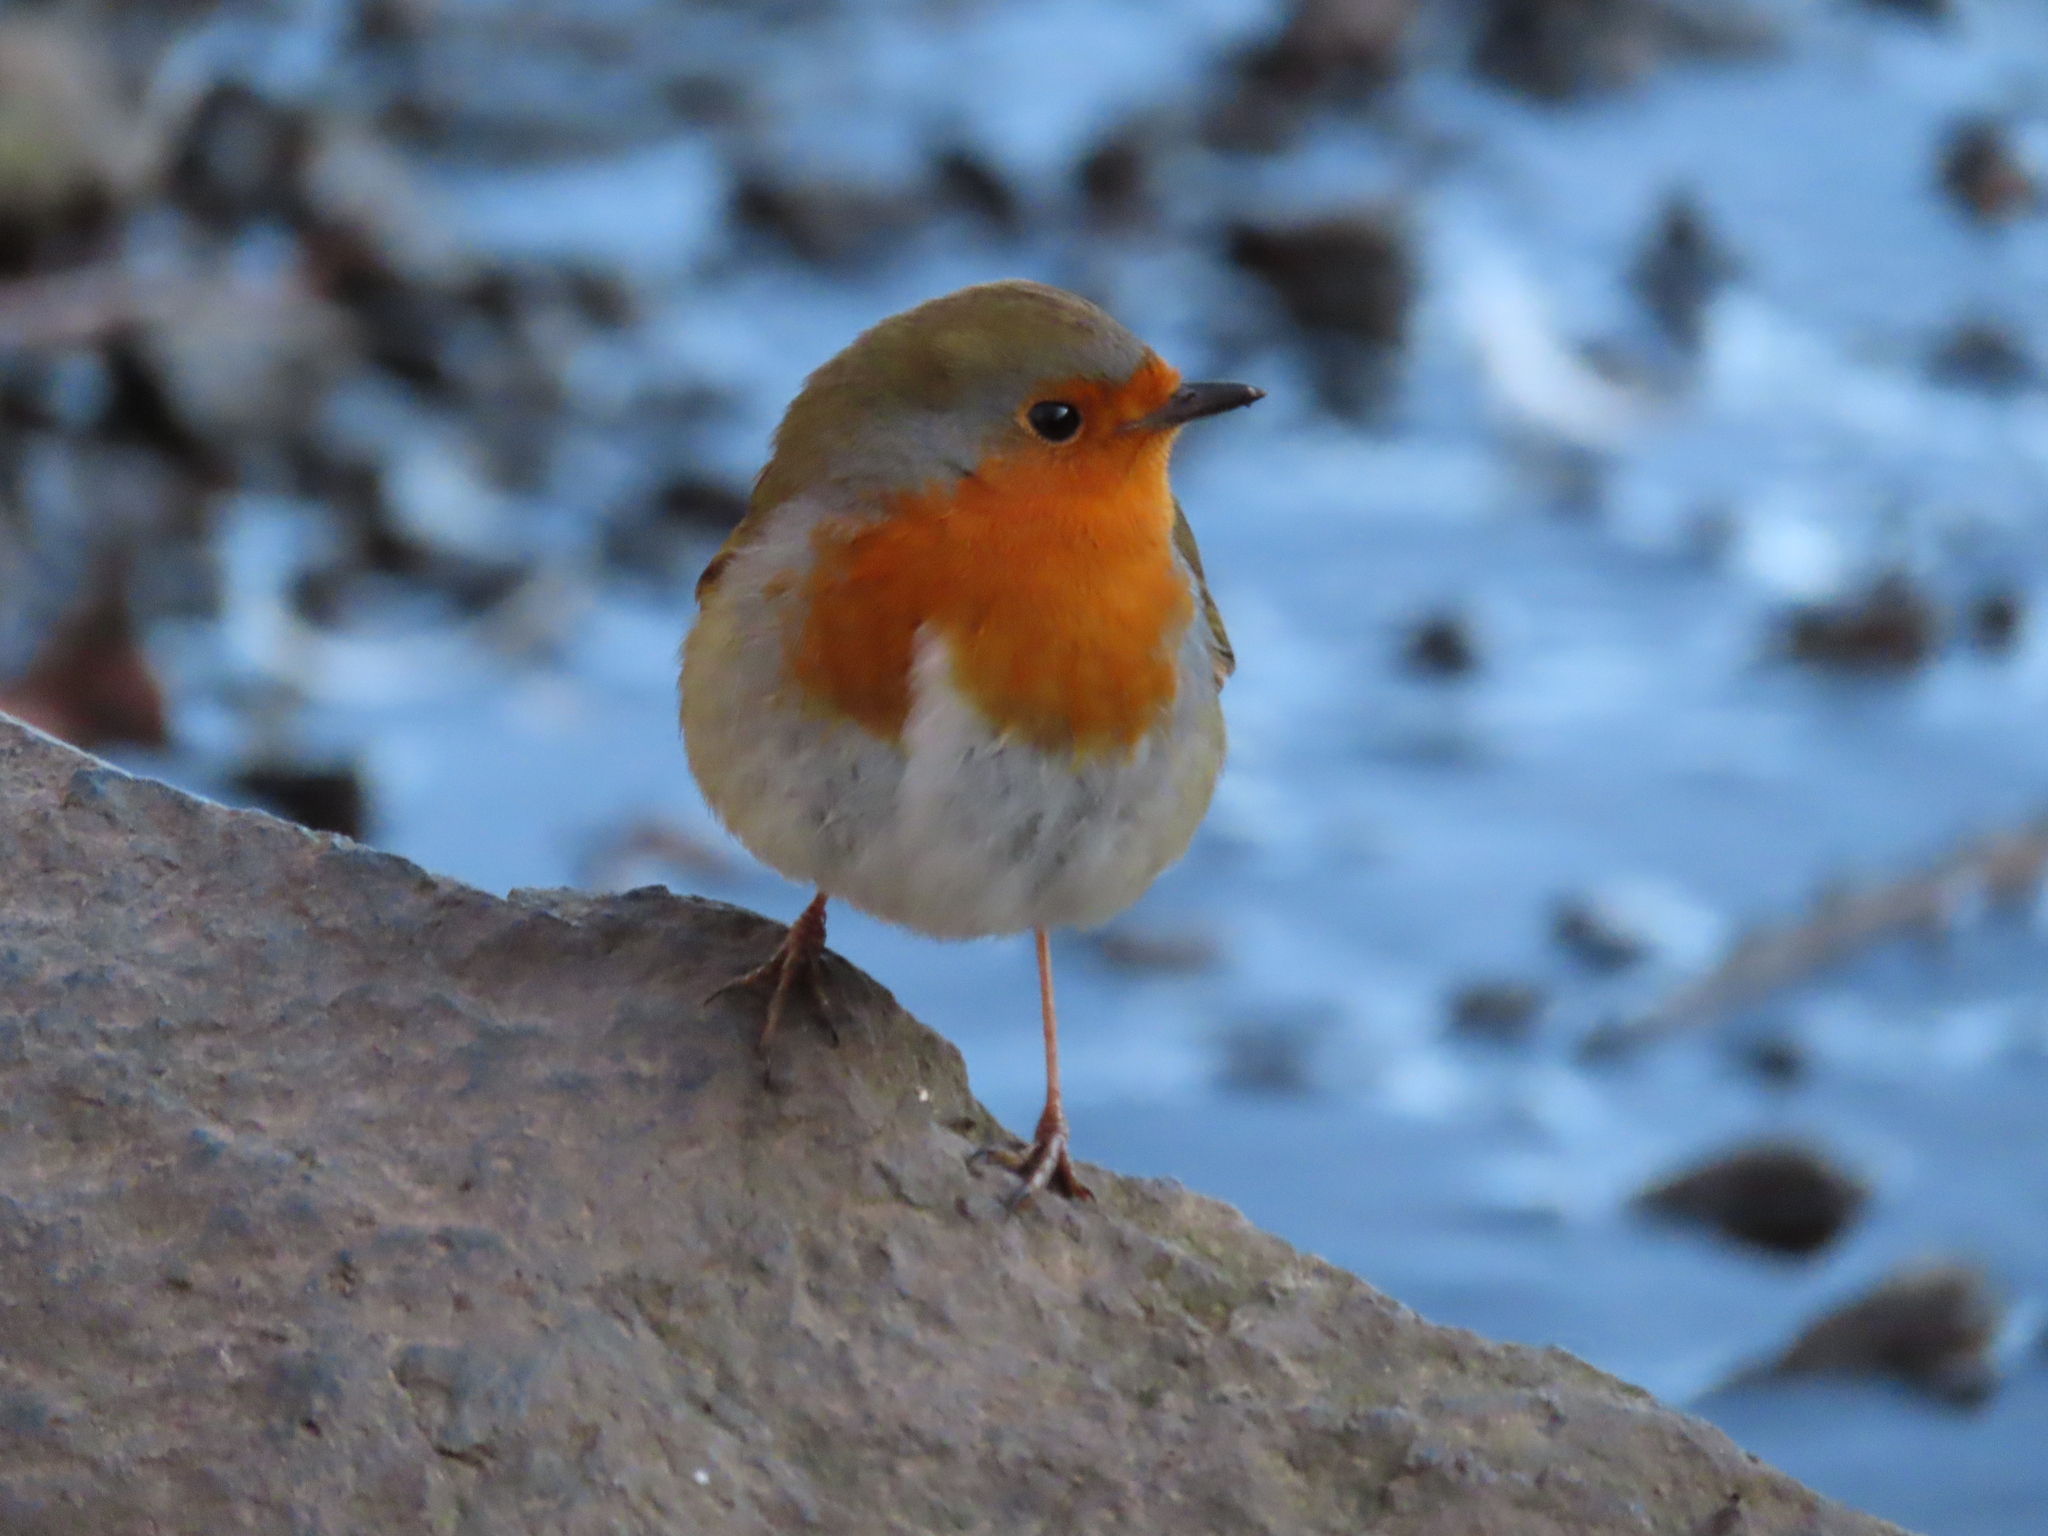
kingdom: Animalia
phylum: Chordata
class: Aves
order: Passeriformes
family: Muscicapidae
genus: Erithacus
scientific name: Erithacus rubecula
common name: European robin
